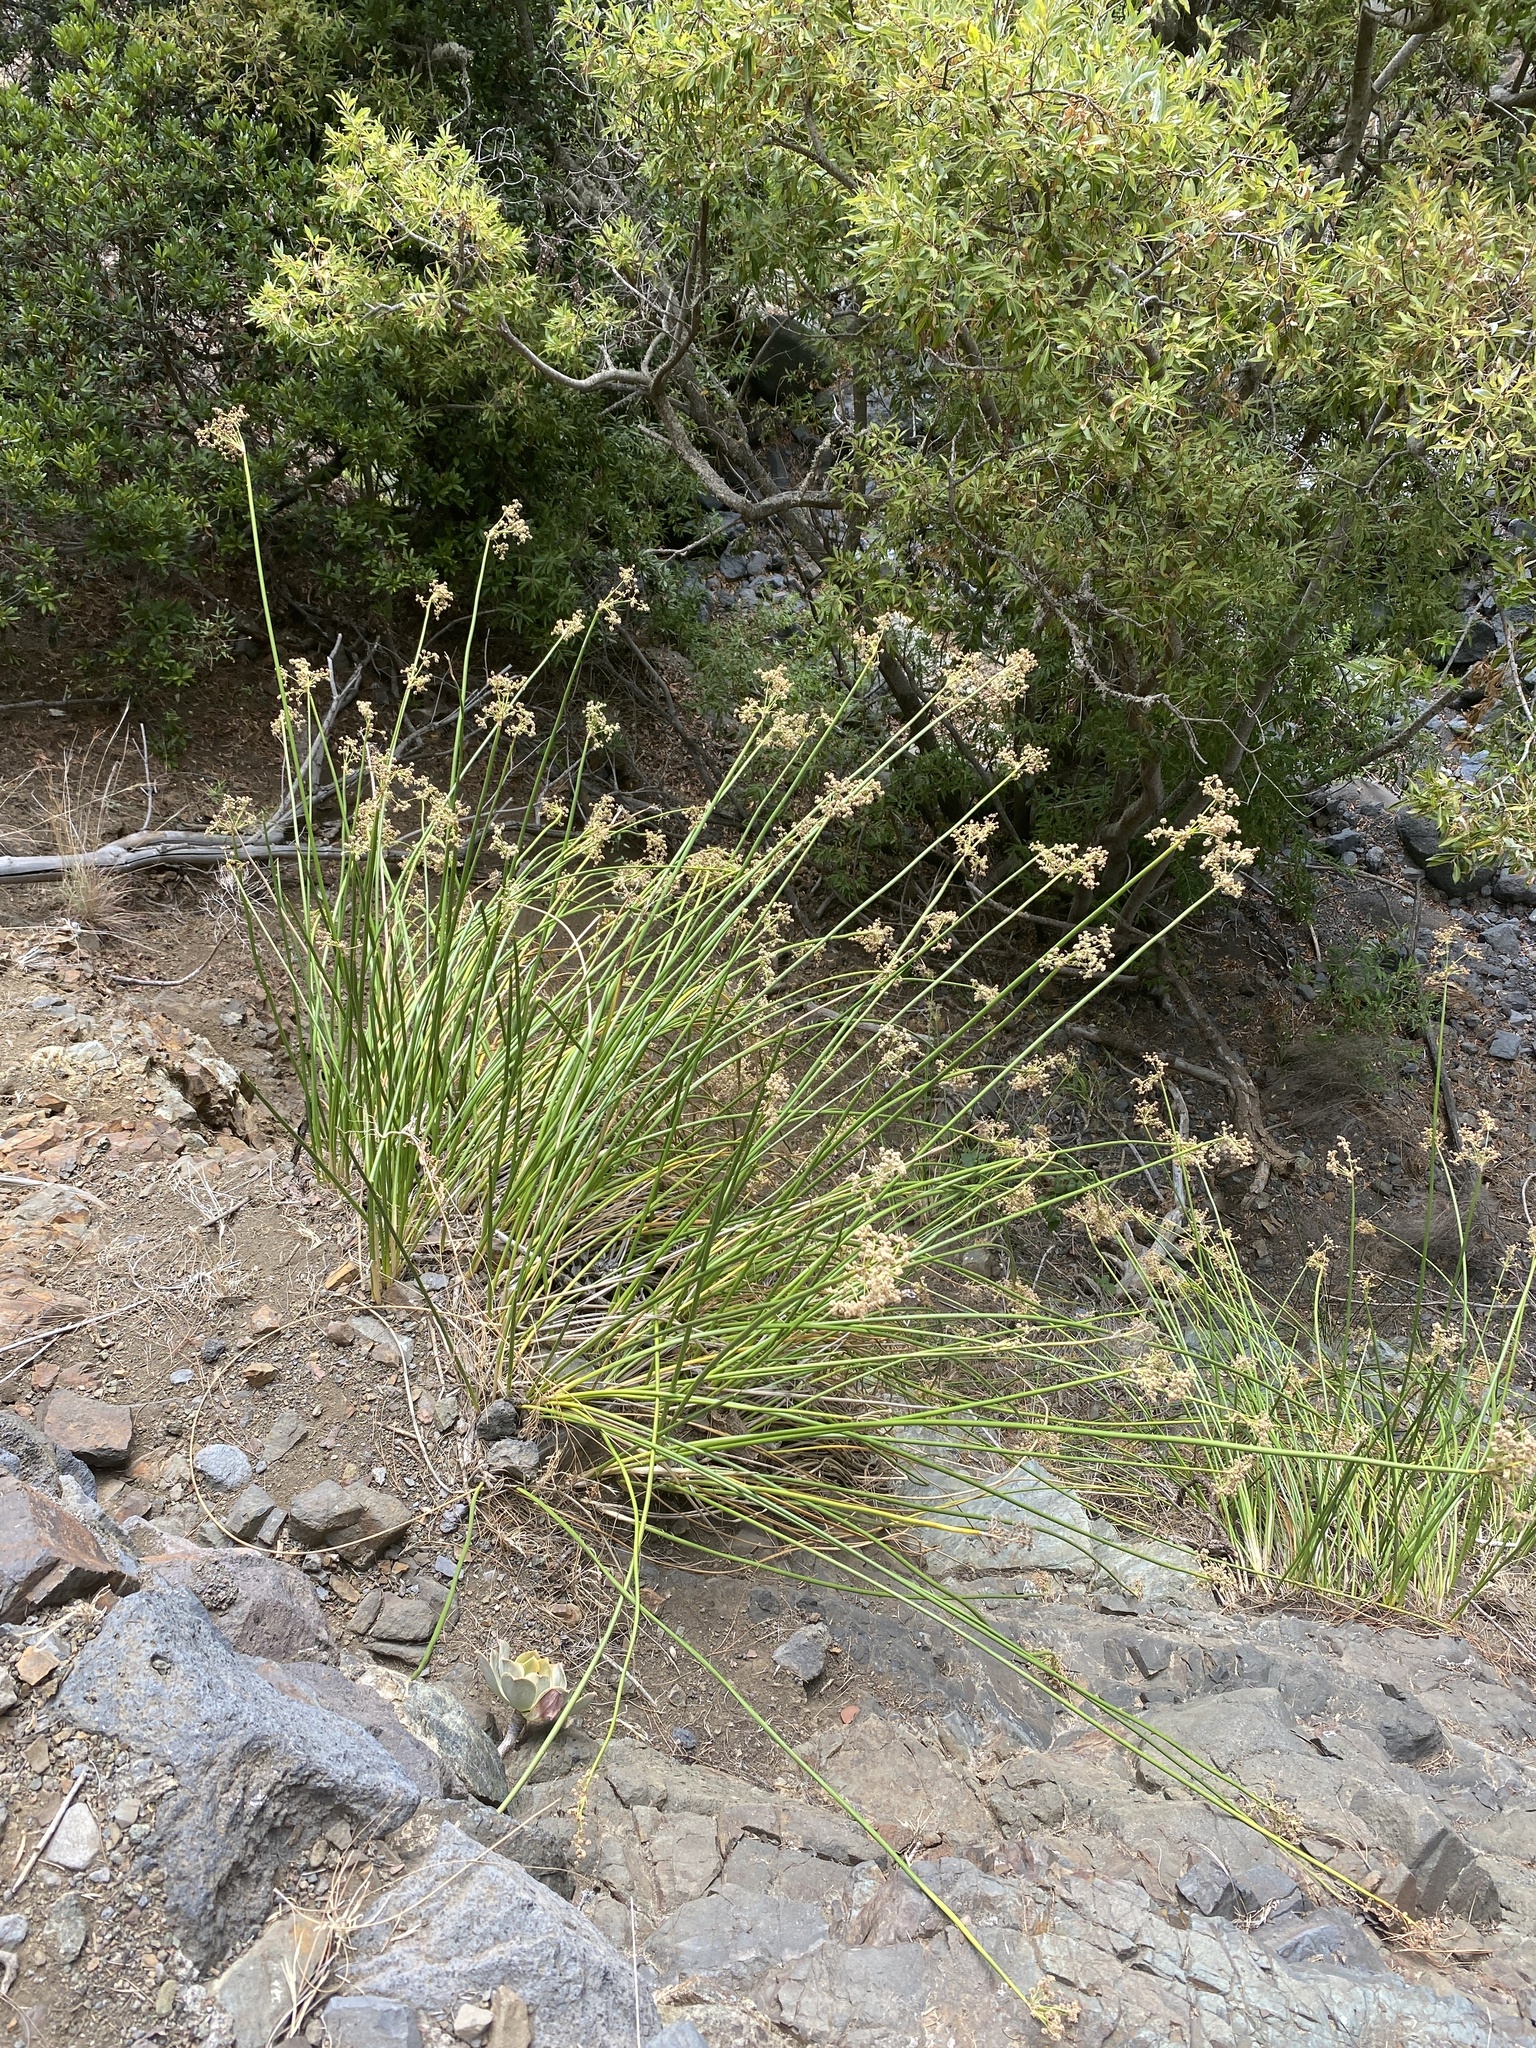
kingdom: Plantae
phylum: Tracheophyta
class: Liliopsida
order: Poales
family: Cyperaceae
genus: Scirpoides
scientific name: Scirpoides holoschoenus
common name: Round-headed club-rush
